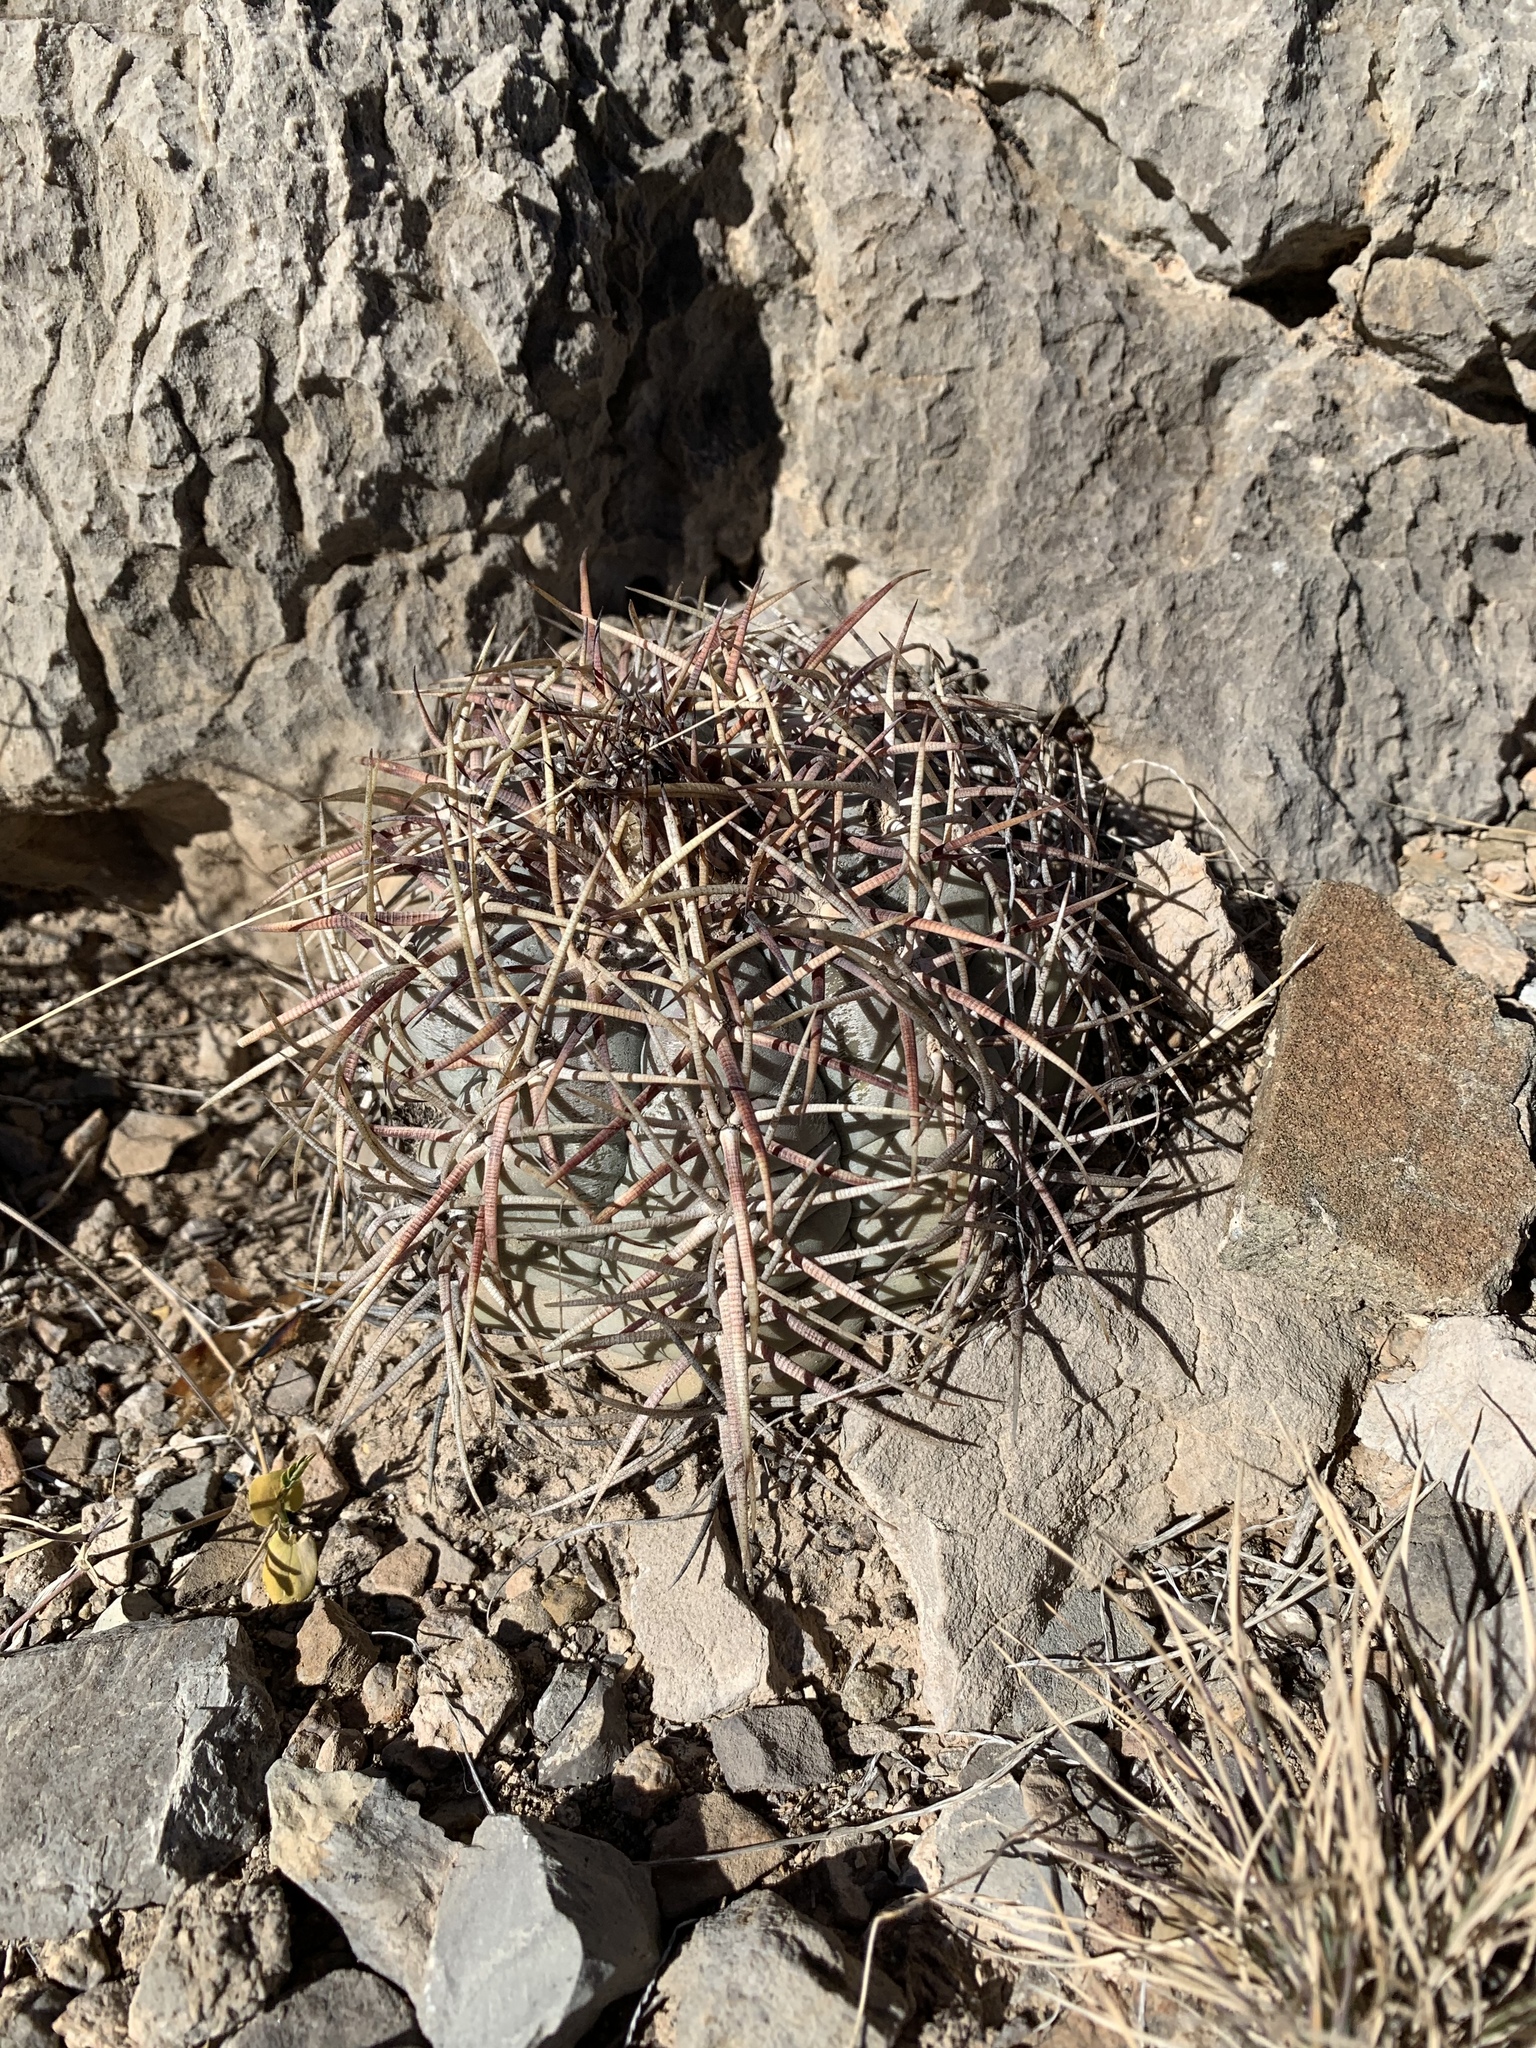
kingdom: Plantae
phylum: Tracheophyta
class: Magnoliopsida
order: Caryophyllales
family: Cactaceae
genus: Echinocactus
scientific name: Echinocactus horizonthalonius
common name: Devilshead
